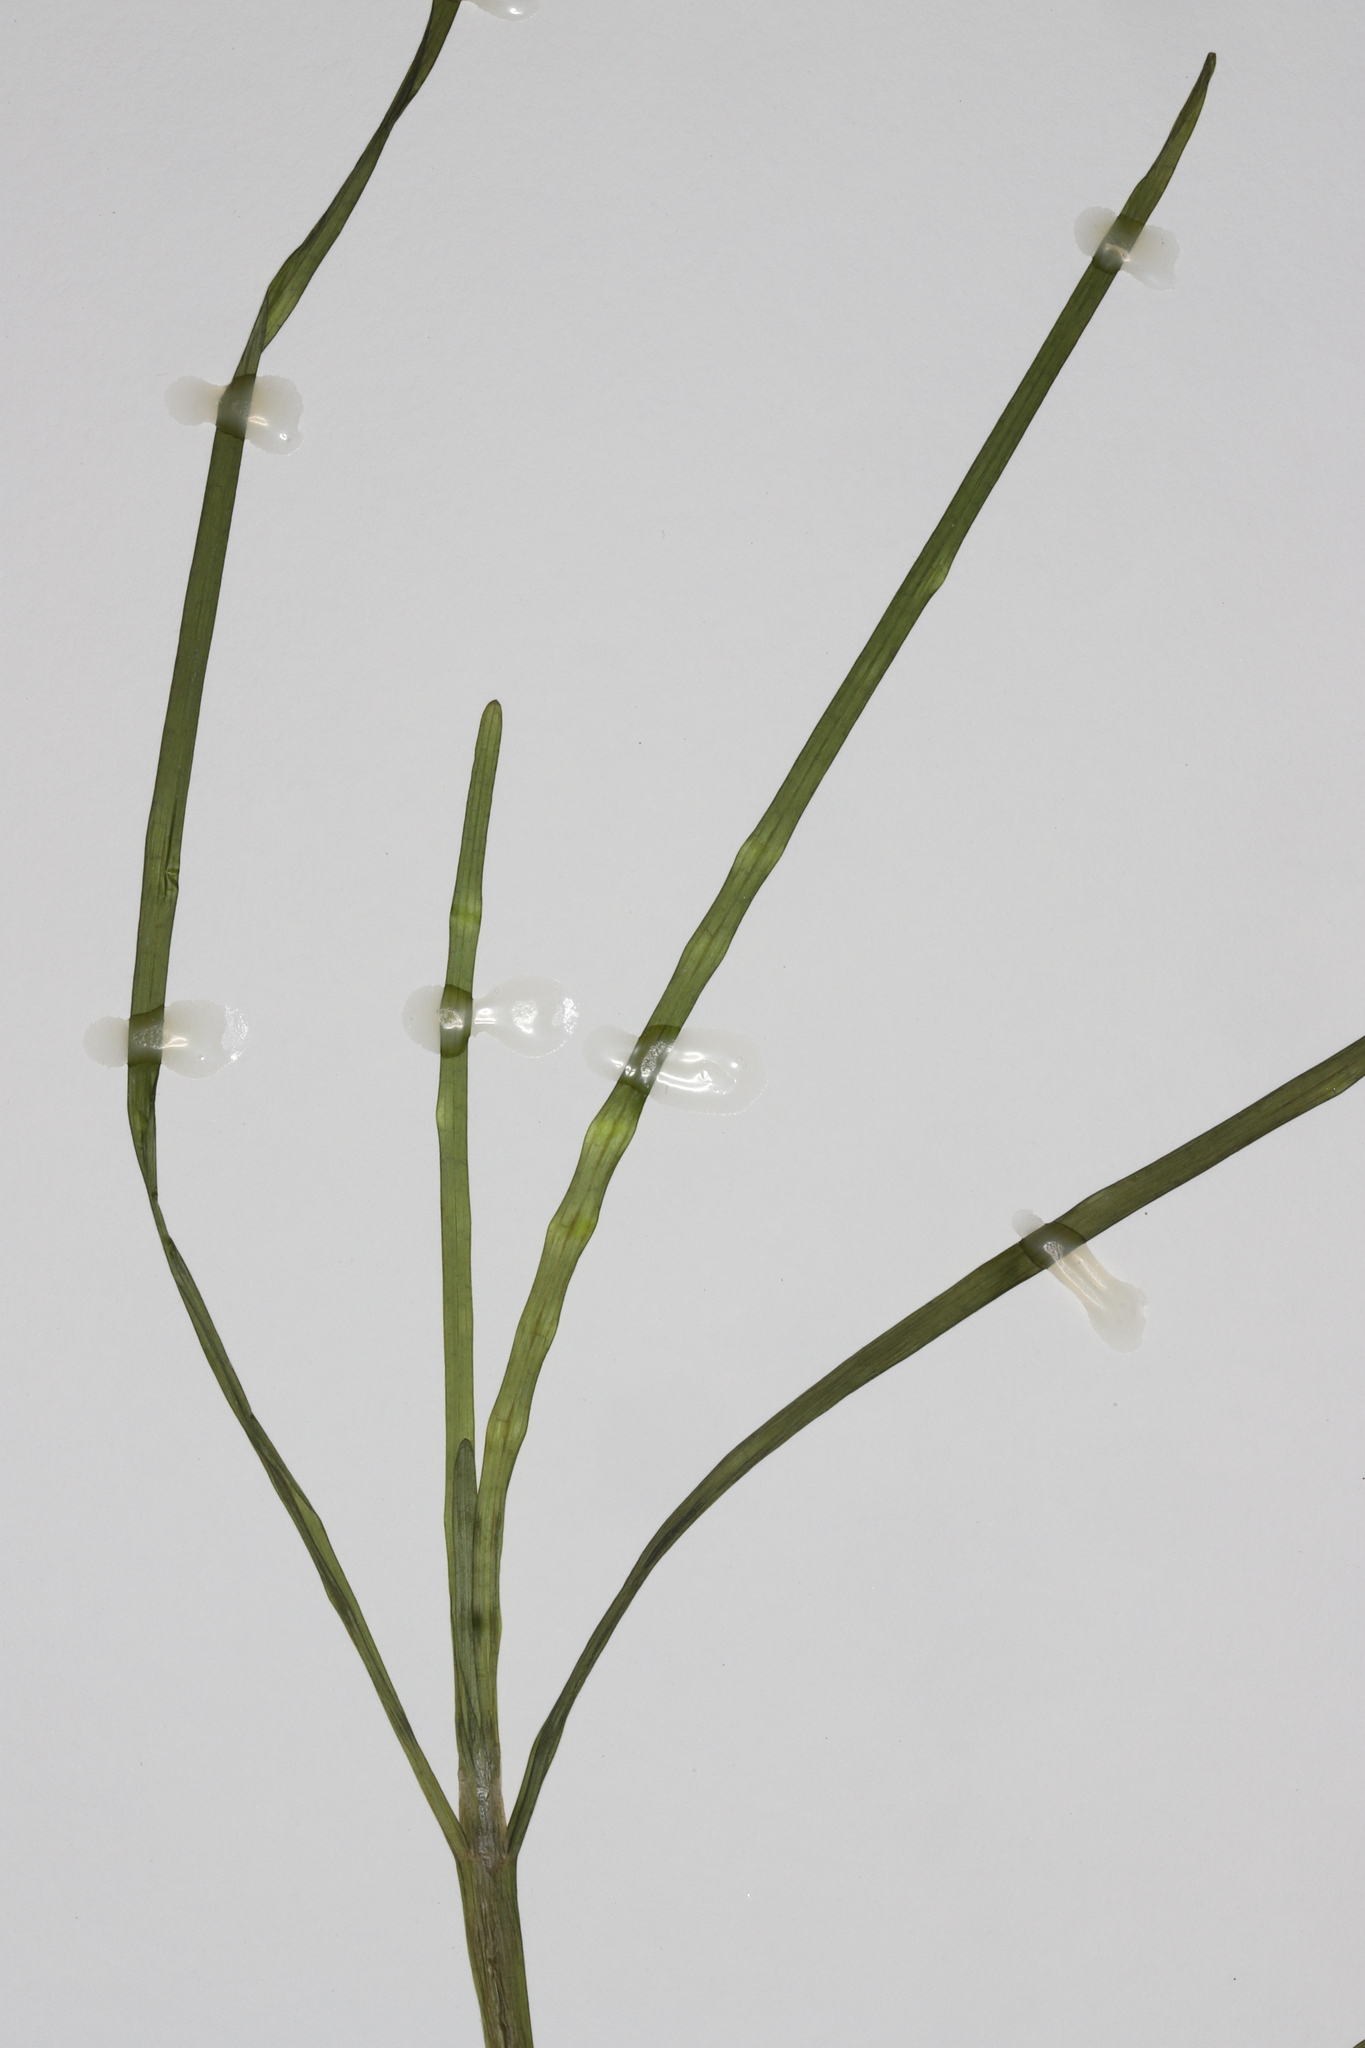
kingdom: Plantae
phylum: Tracheophyta
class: Liliopsida
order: Commelinales
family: Pontederiaceae
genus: Heteranthera
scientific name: Heteranthera dubia
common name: Grass-leaved mud plantain
